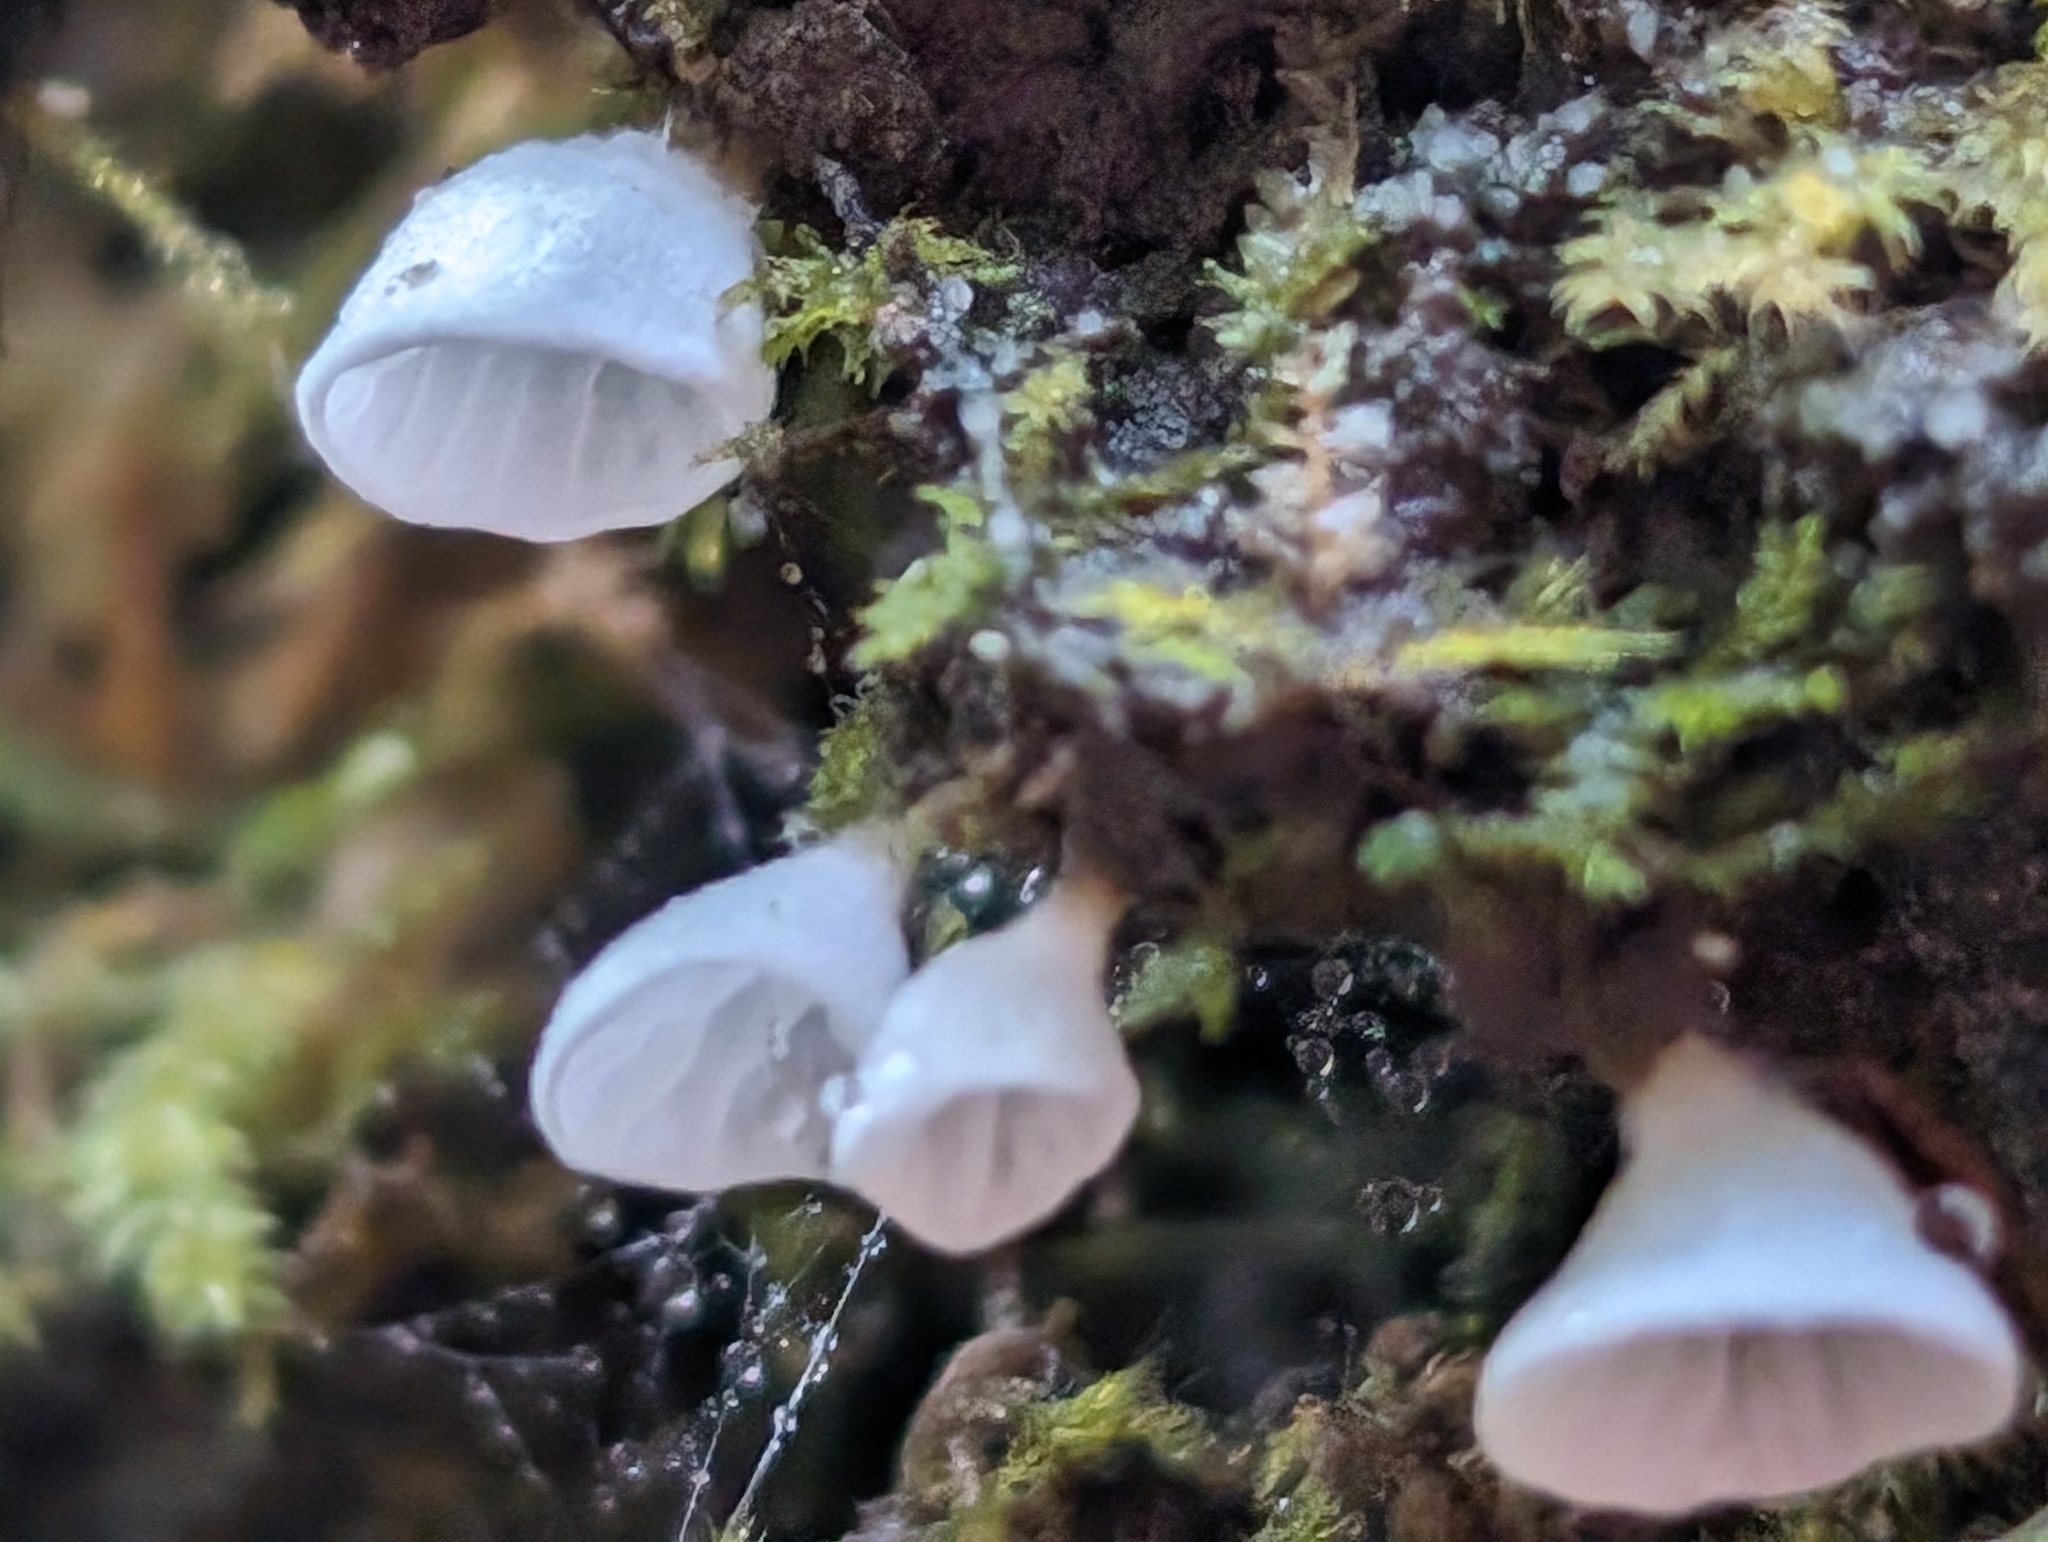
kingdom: Fungi
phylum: Basidiomycota
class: Agaricomycetes
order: Agaricales
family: Tricholomataceae
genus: Rimbachia
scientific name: Rimbachia bryophila
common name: Veined mossear
